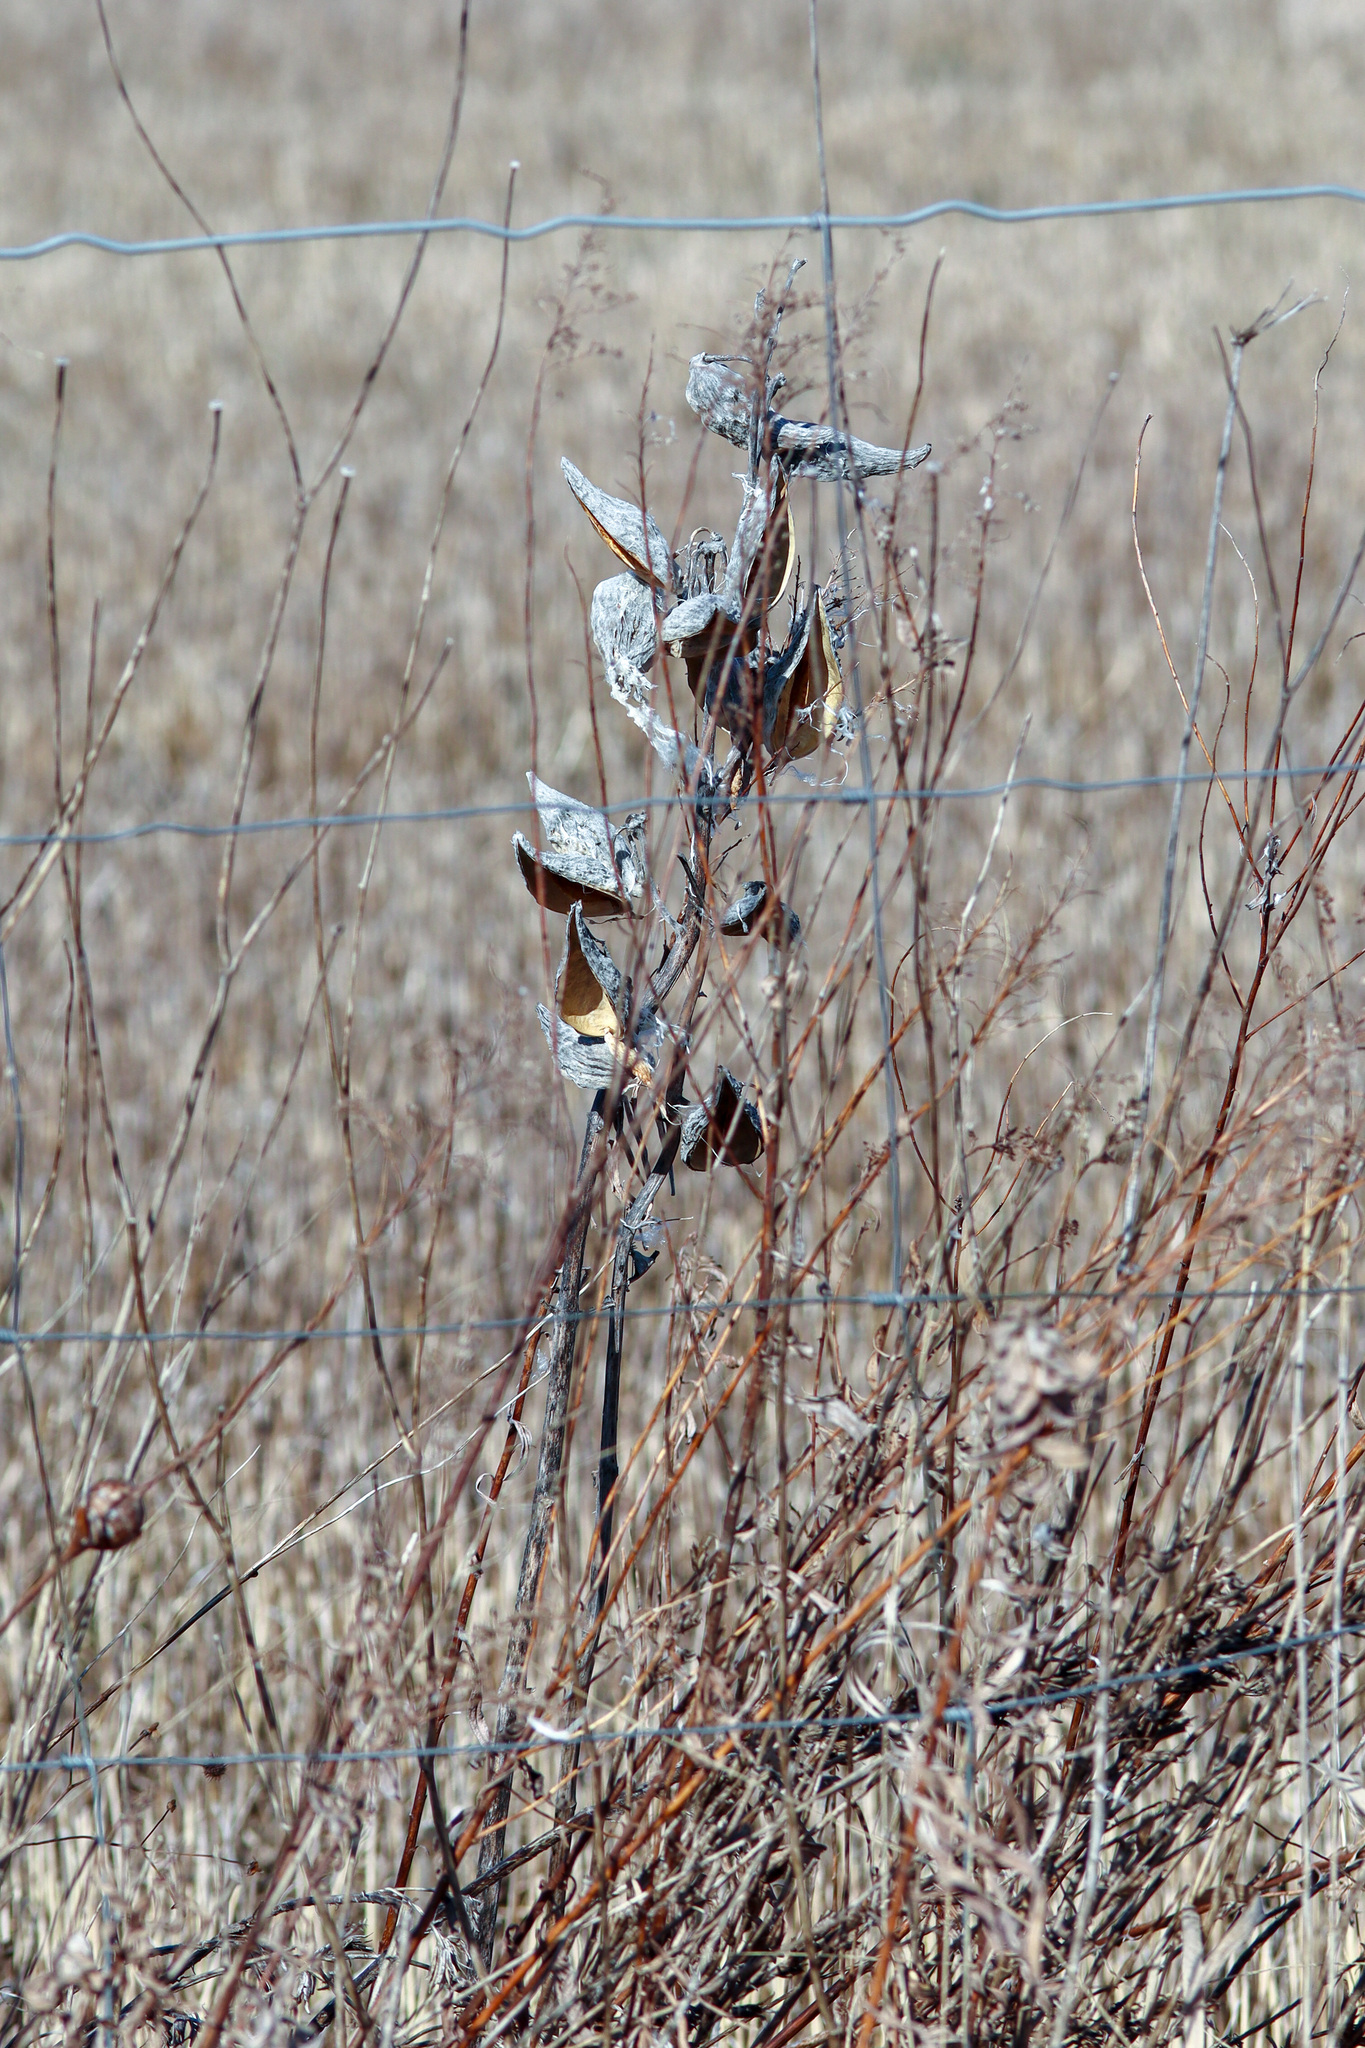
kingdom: Plantae
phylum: Tracheophyta
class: Magnoliopsida
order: Gentianales
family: Apocynaceae
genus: Asclepias
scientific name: Asclepias syriaca
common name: Common milkweed
